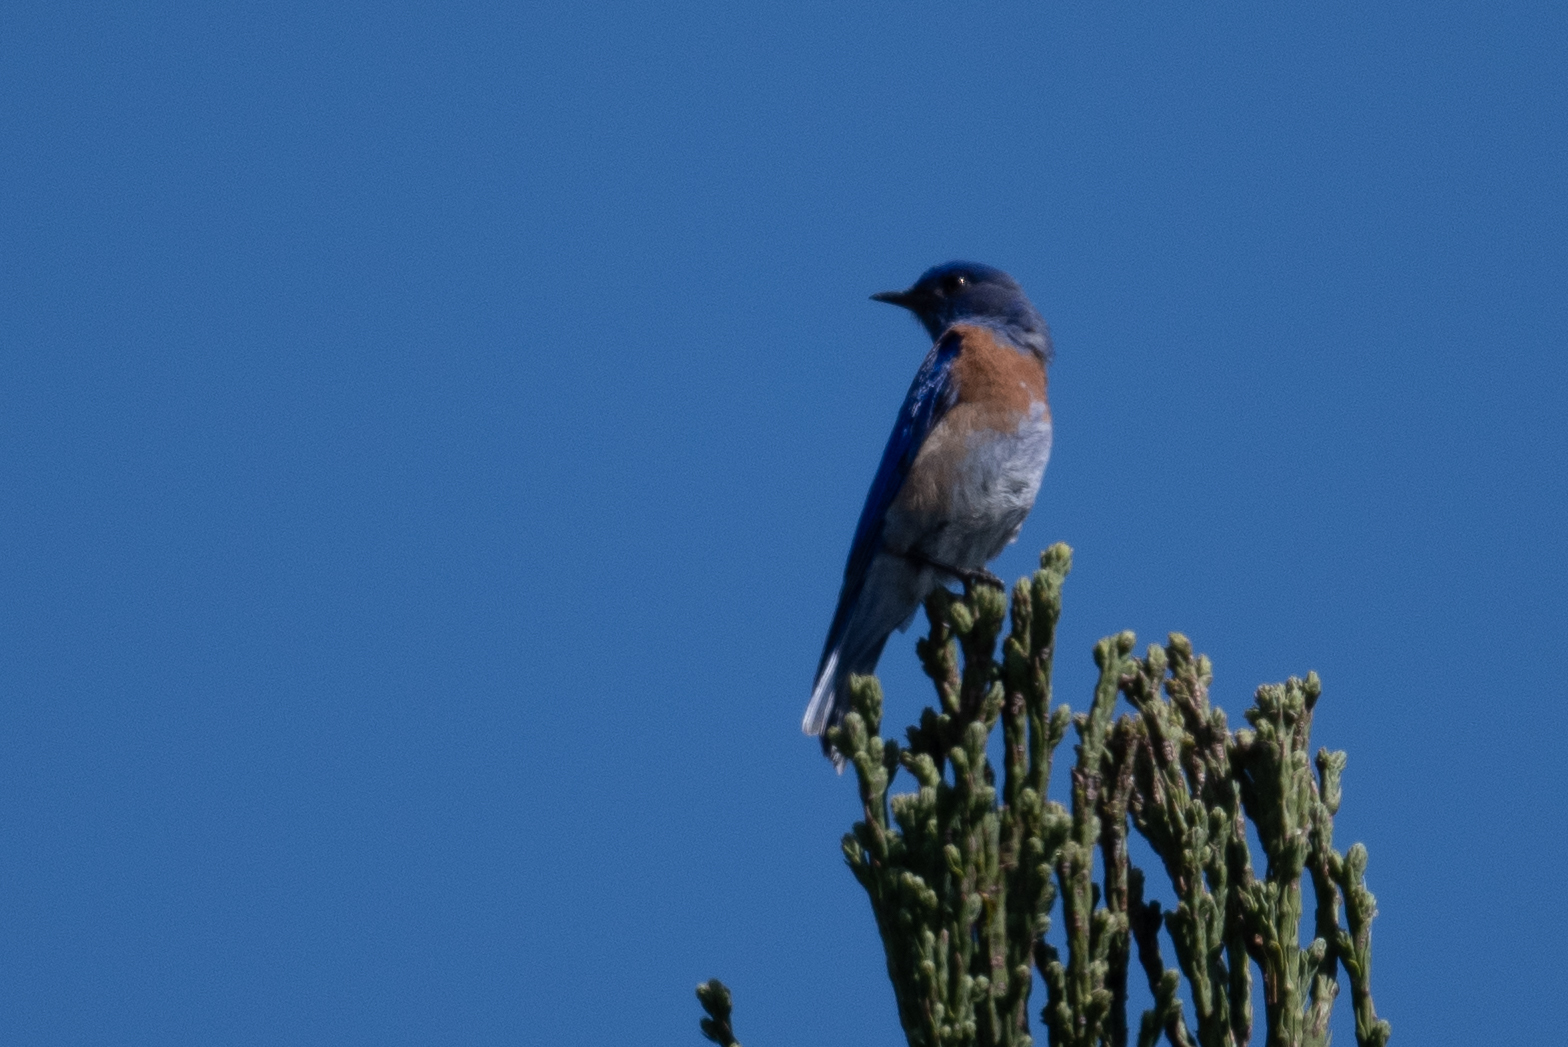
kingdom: Animalia
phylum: Chordata
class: Aves
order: Passeriformes
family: Turdidae
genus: Sialia
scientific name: Sialia mexicana
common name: Western bluebird
